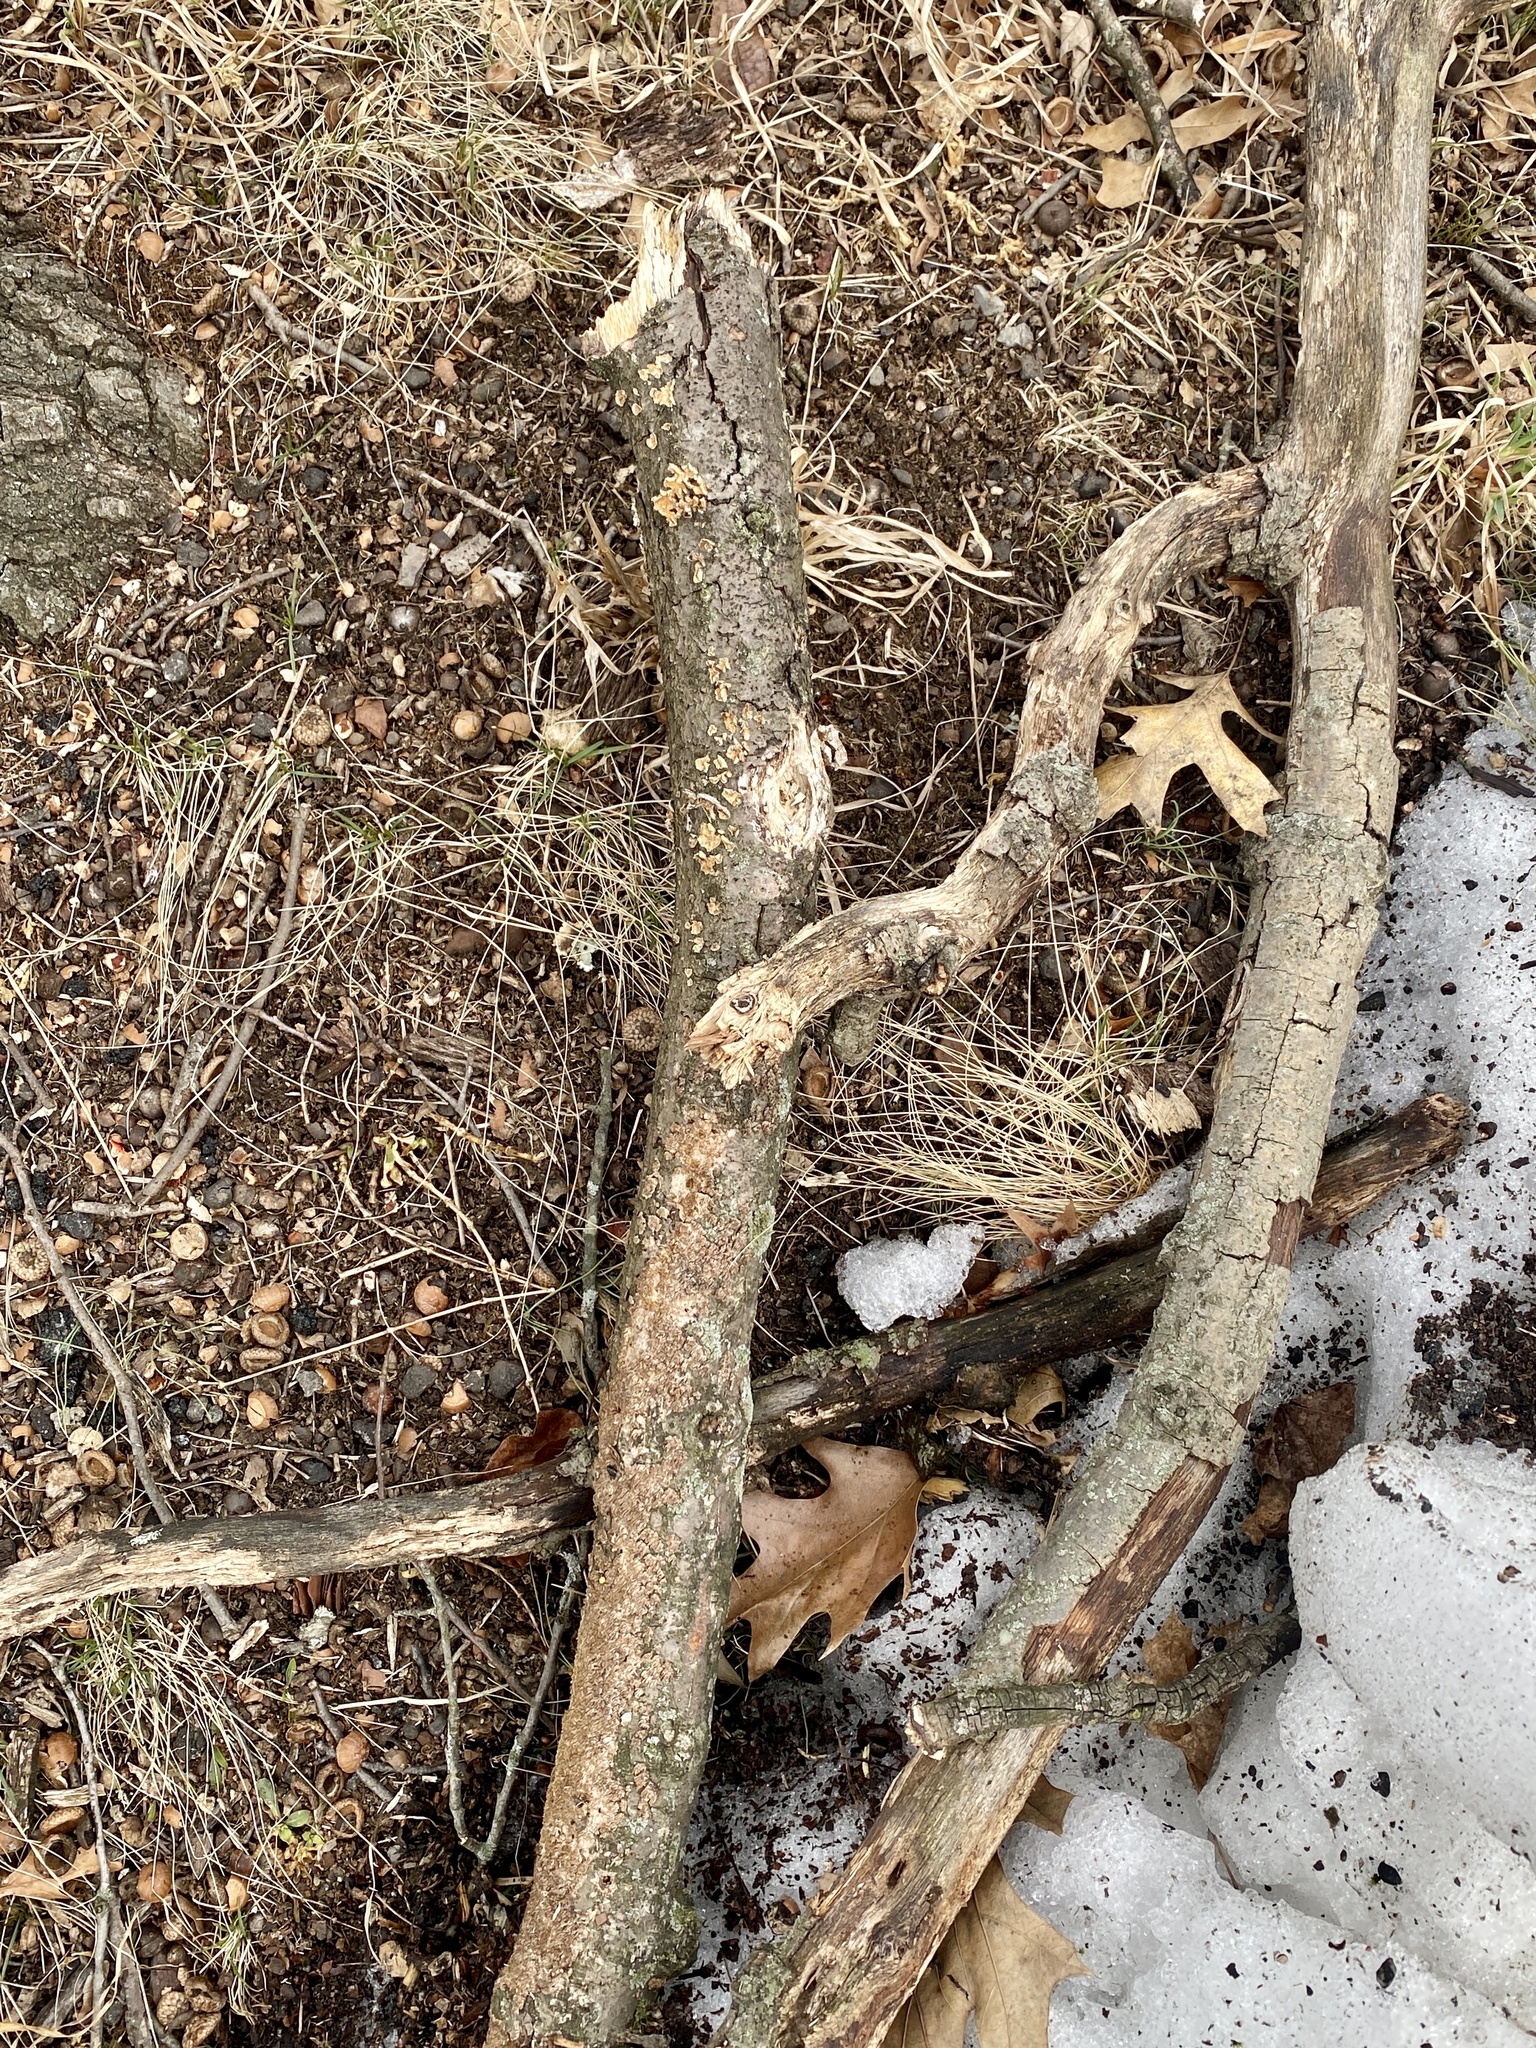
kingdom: Fungi
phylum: Basidiomycota
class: Agaricomycetes
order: Russulales
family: Stereaceae
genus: Stereum
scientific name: Stereum complicatum
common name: Crowded parchment
